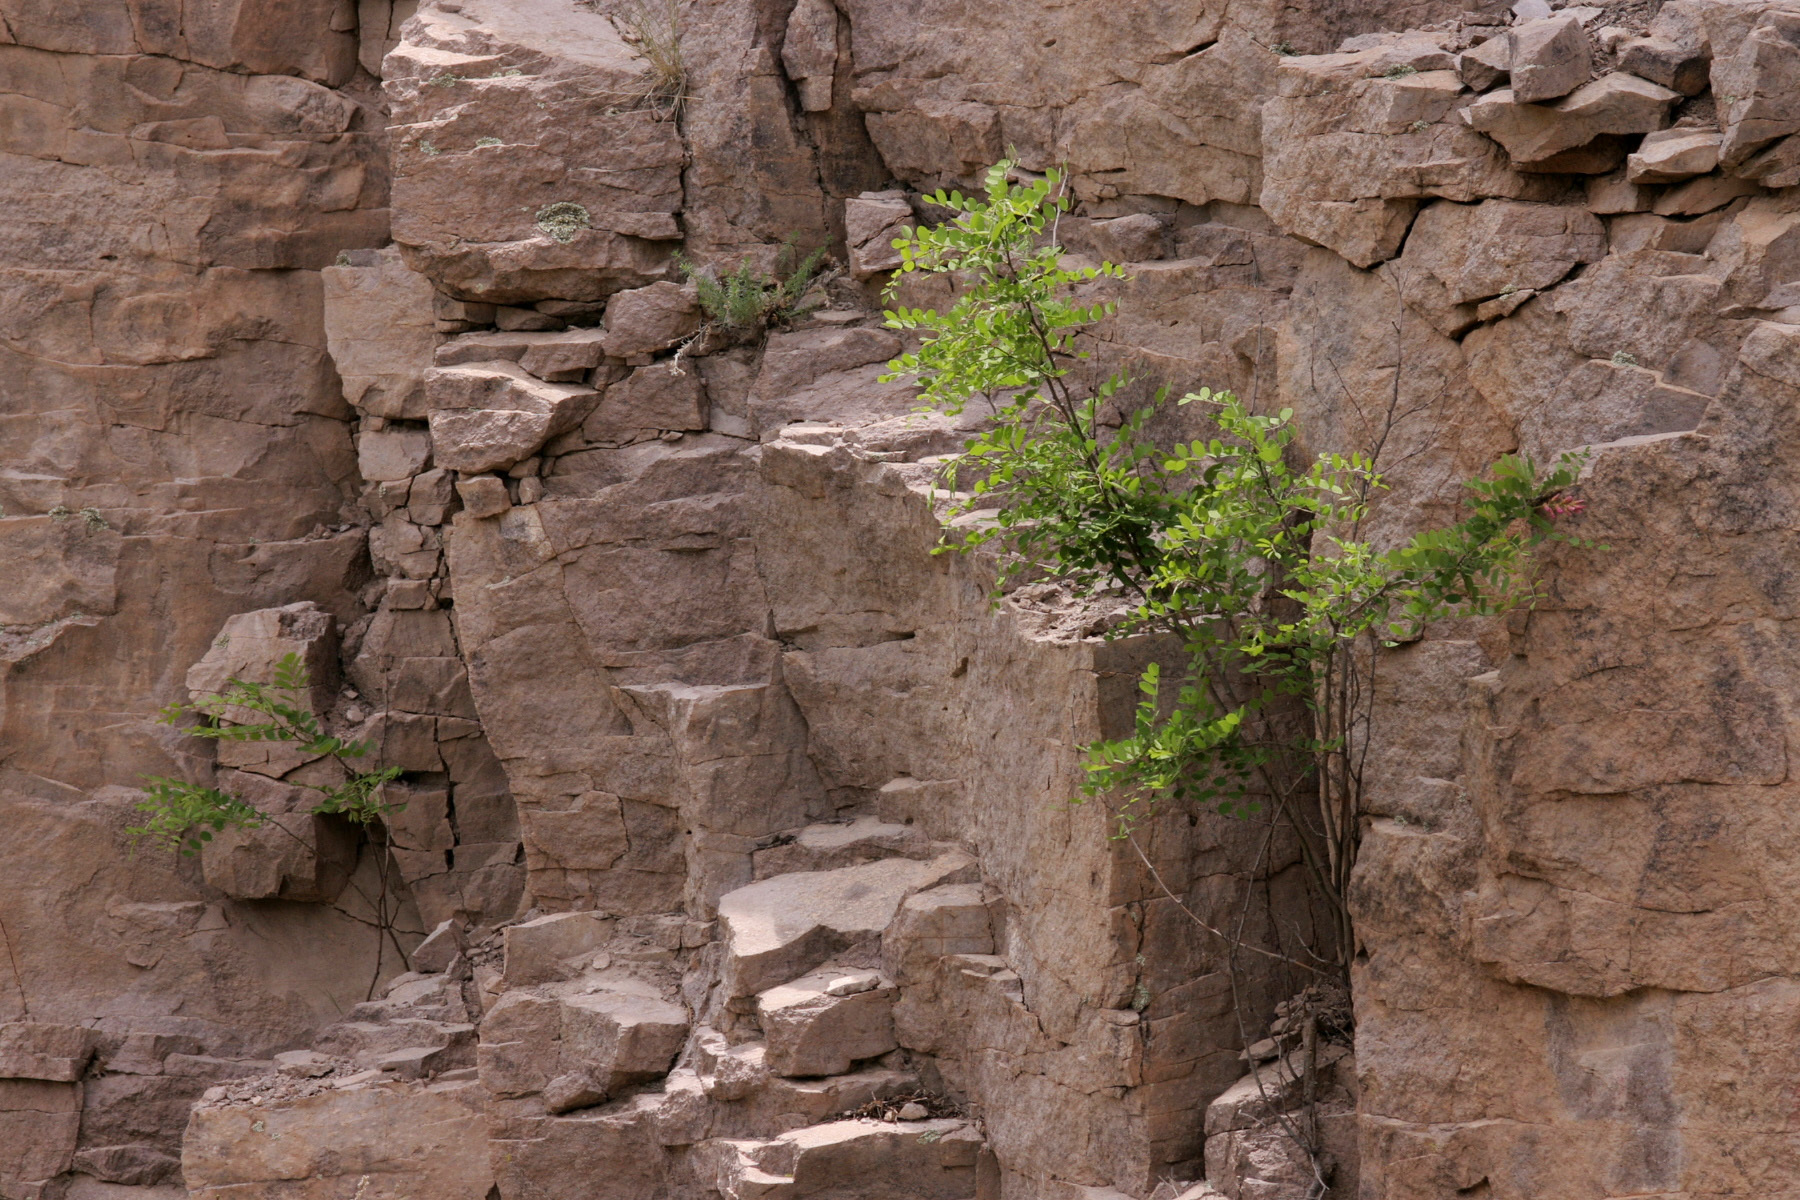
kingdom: Plantae
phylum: Tracheophyta
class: Magnoliopsida
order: Fabales
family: Fabaceae
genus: Robinia
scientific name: Robinia neomexicana
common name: New mexico locust
